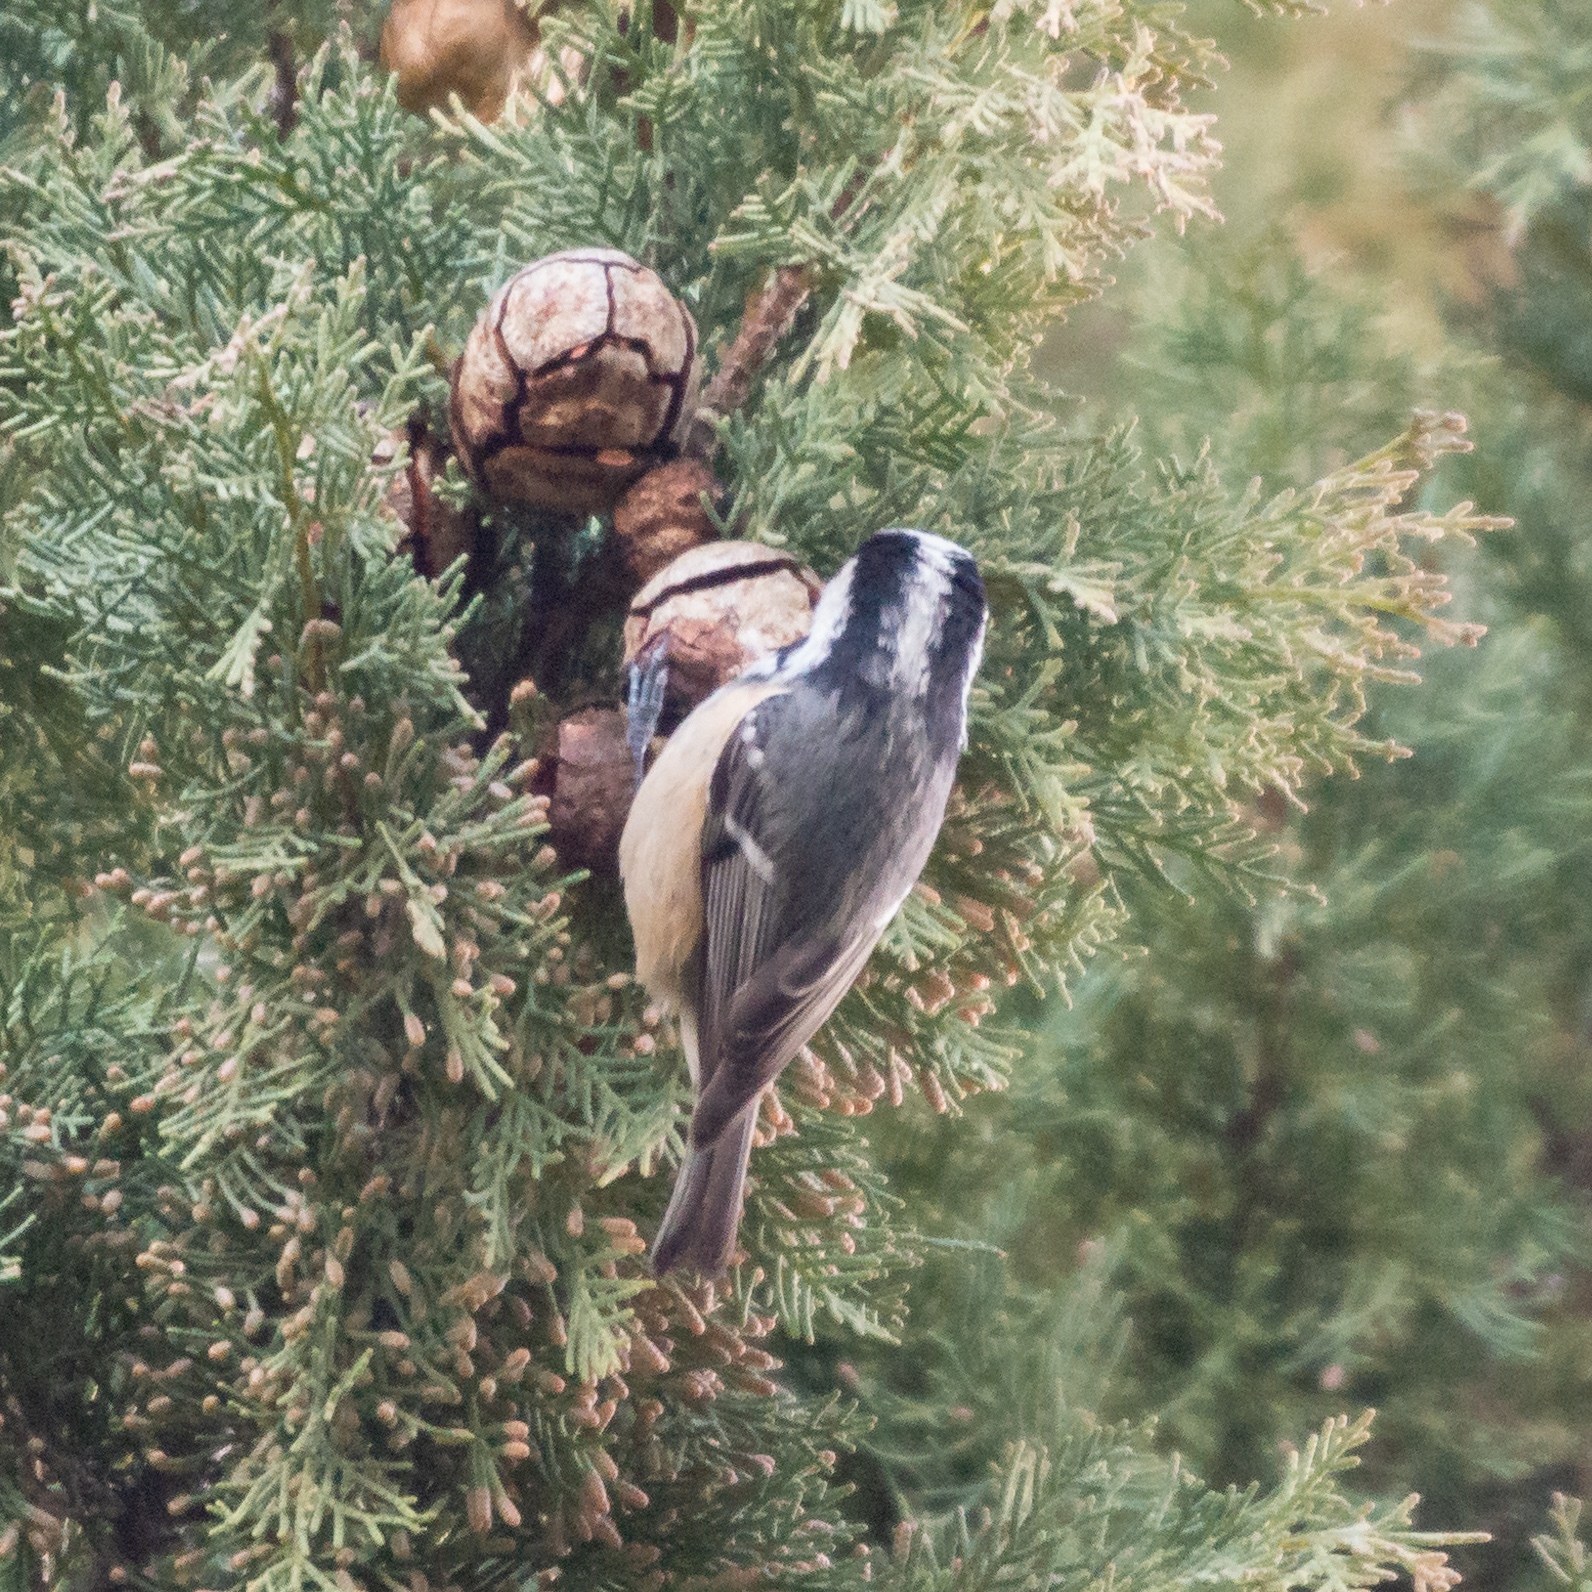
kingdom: Animalia
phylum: Chordata
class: Aves
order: Passeriformes
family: Paridae
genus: Periparus
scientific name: Periparus ater
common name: Coal tit
